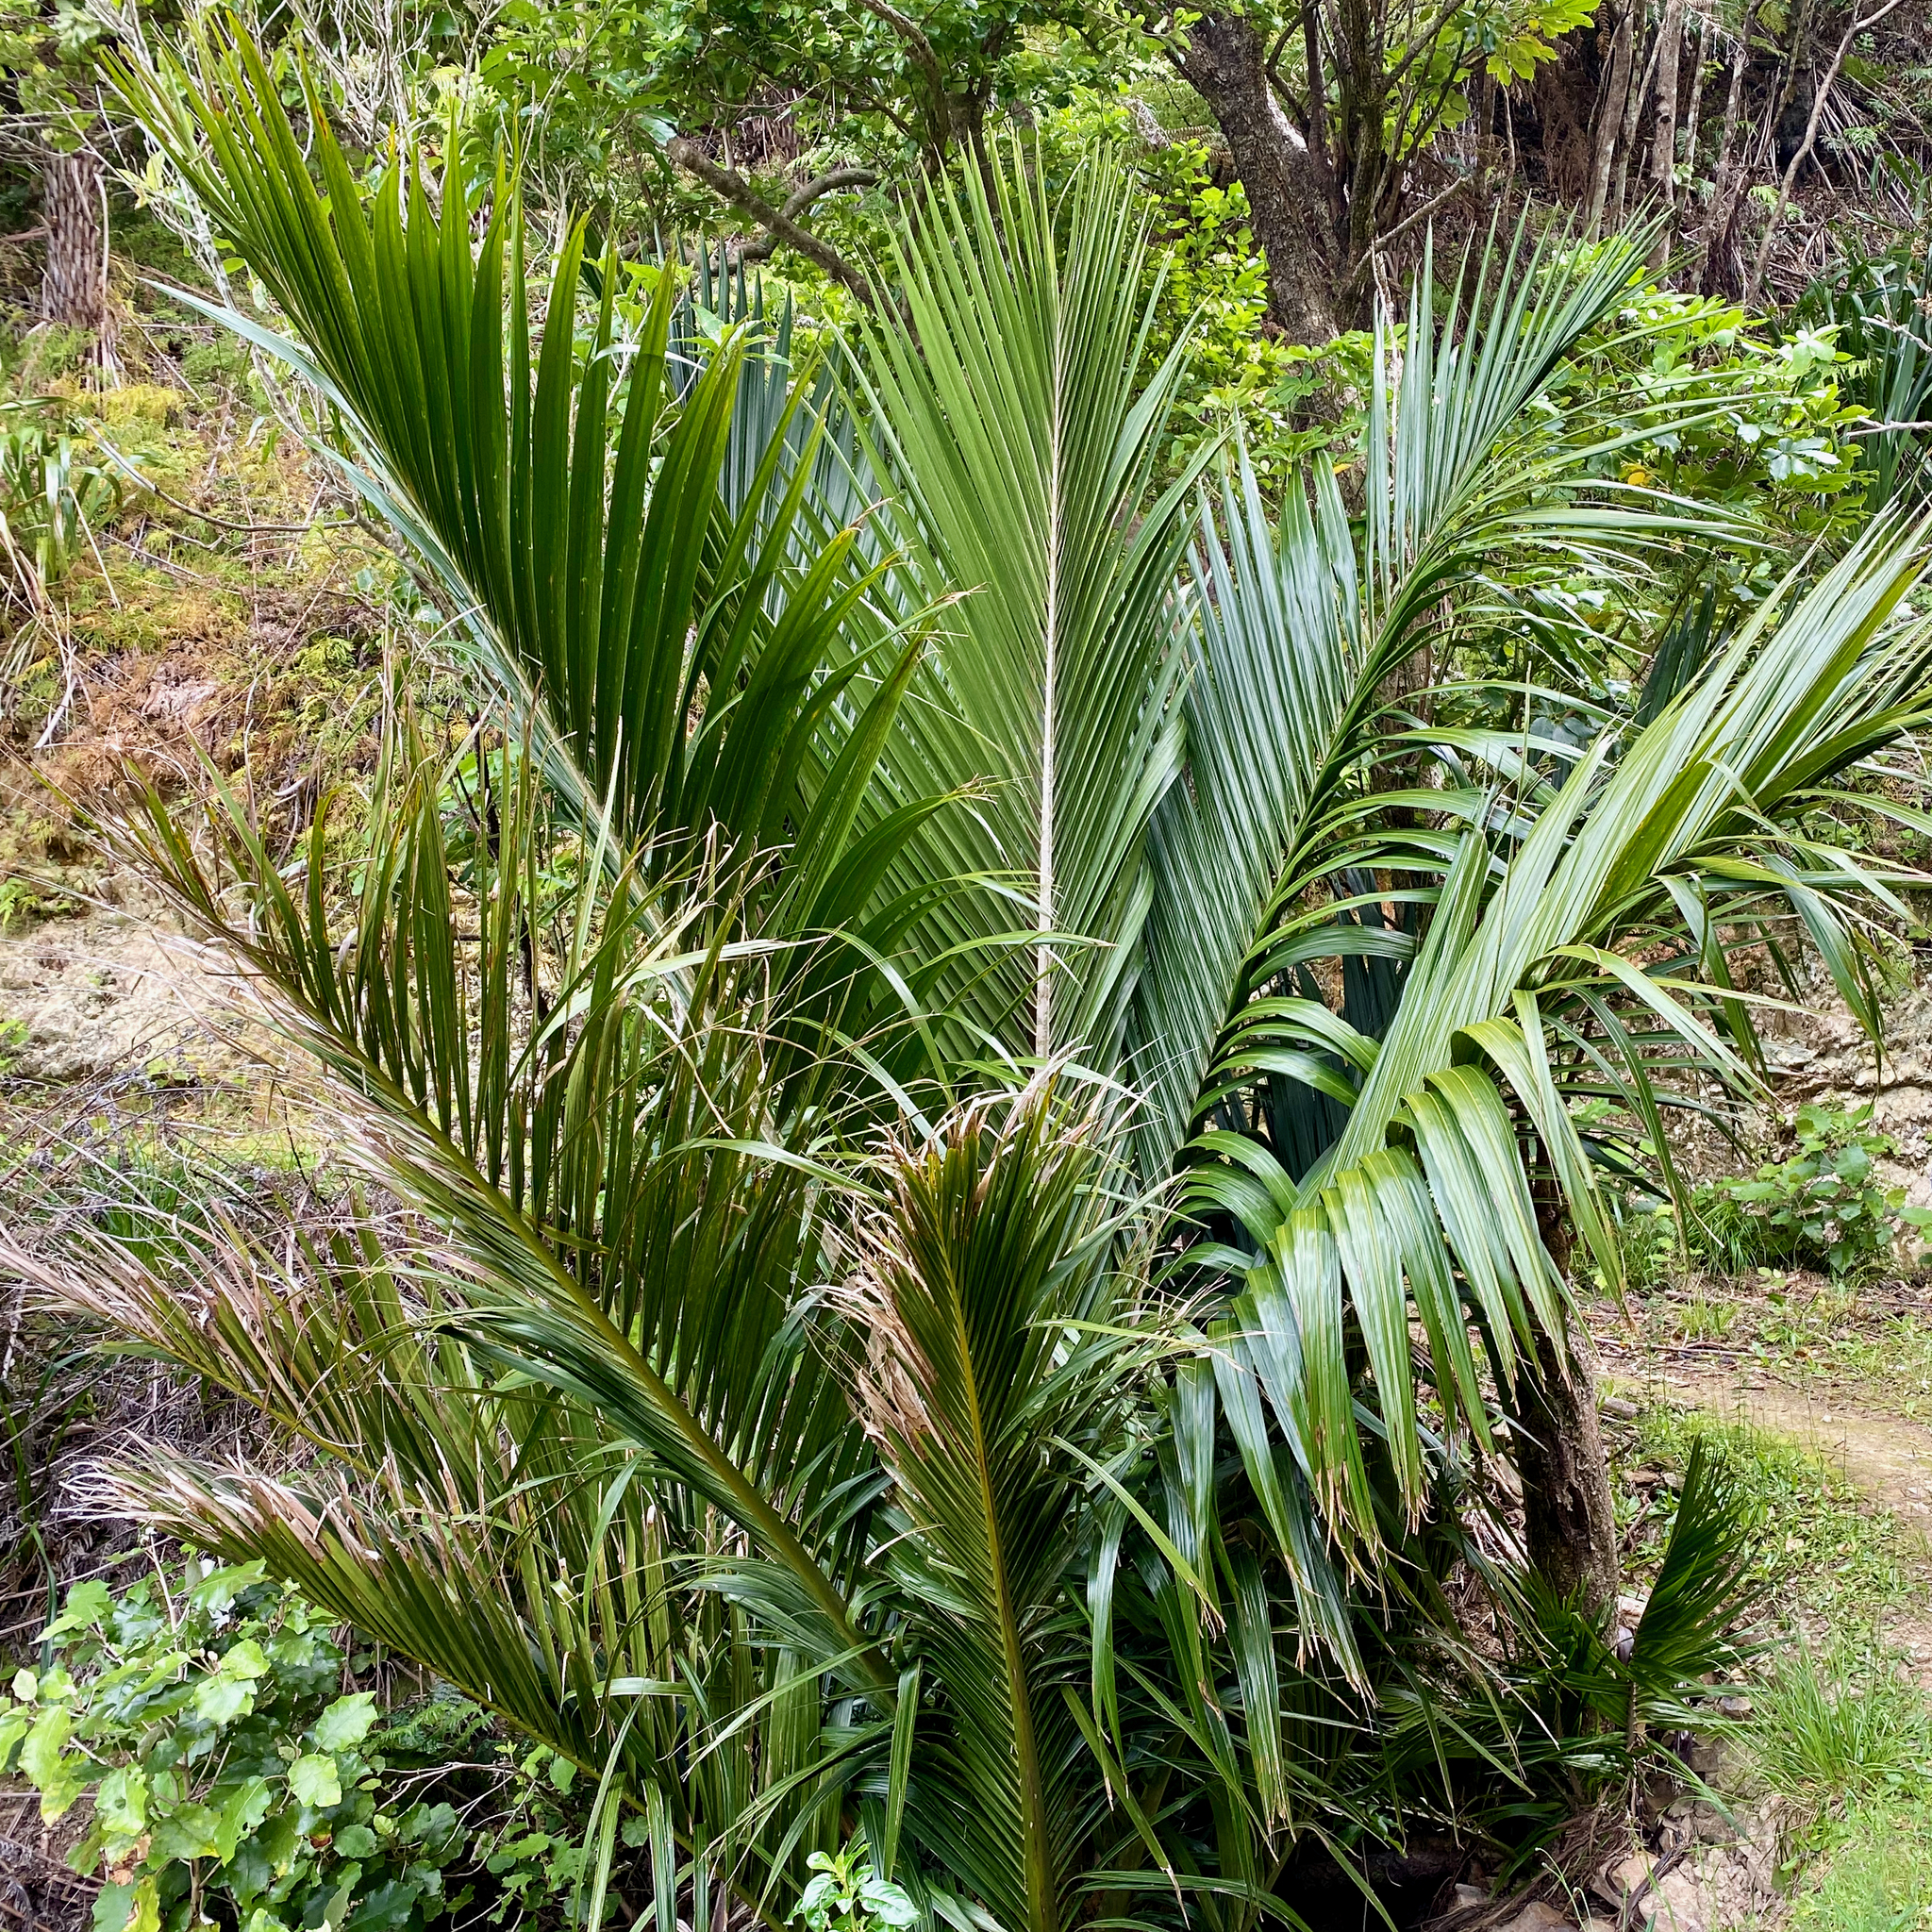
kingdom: Plantae
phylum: Tracheophyta
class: Liliopsida
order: Arecales
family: Arecaceae
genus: Rhopalostylis
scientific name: Rhopalostylis sapida
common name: Feather-duster palm
